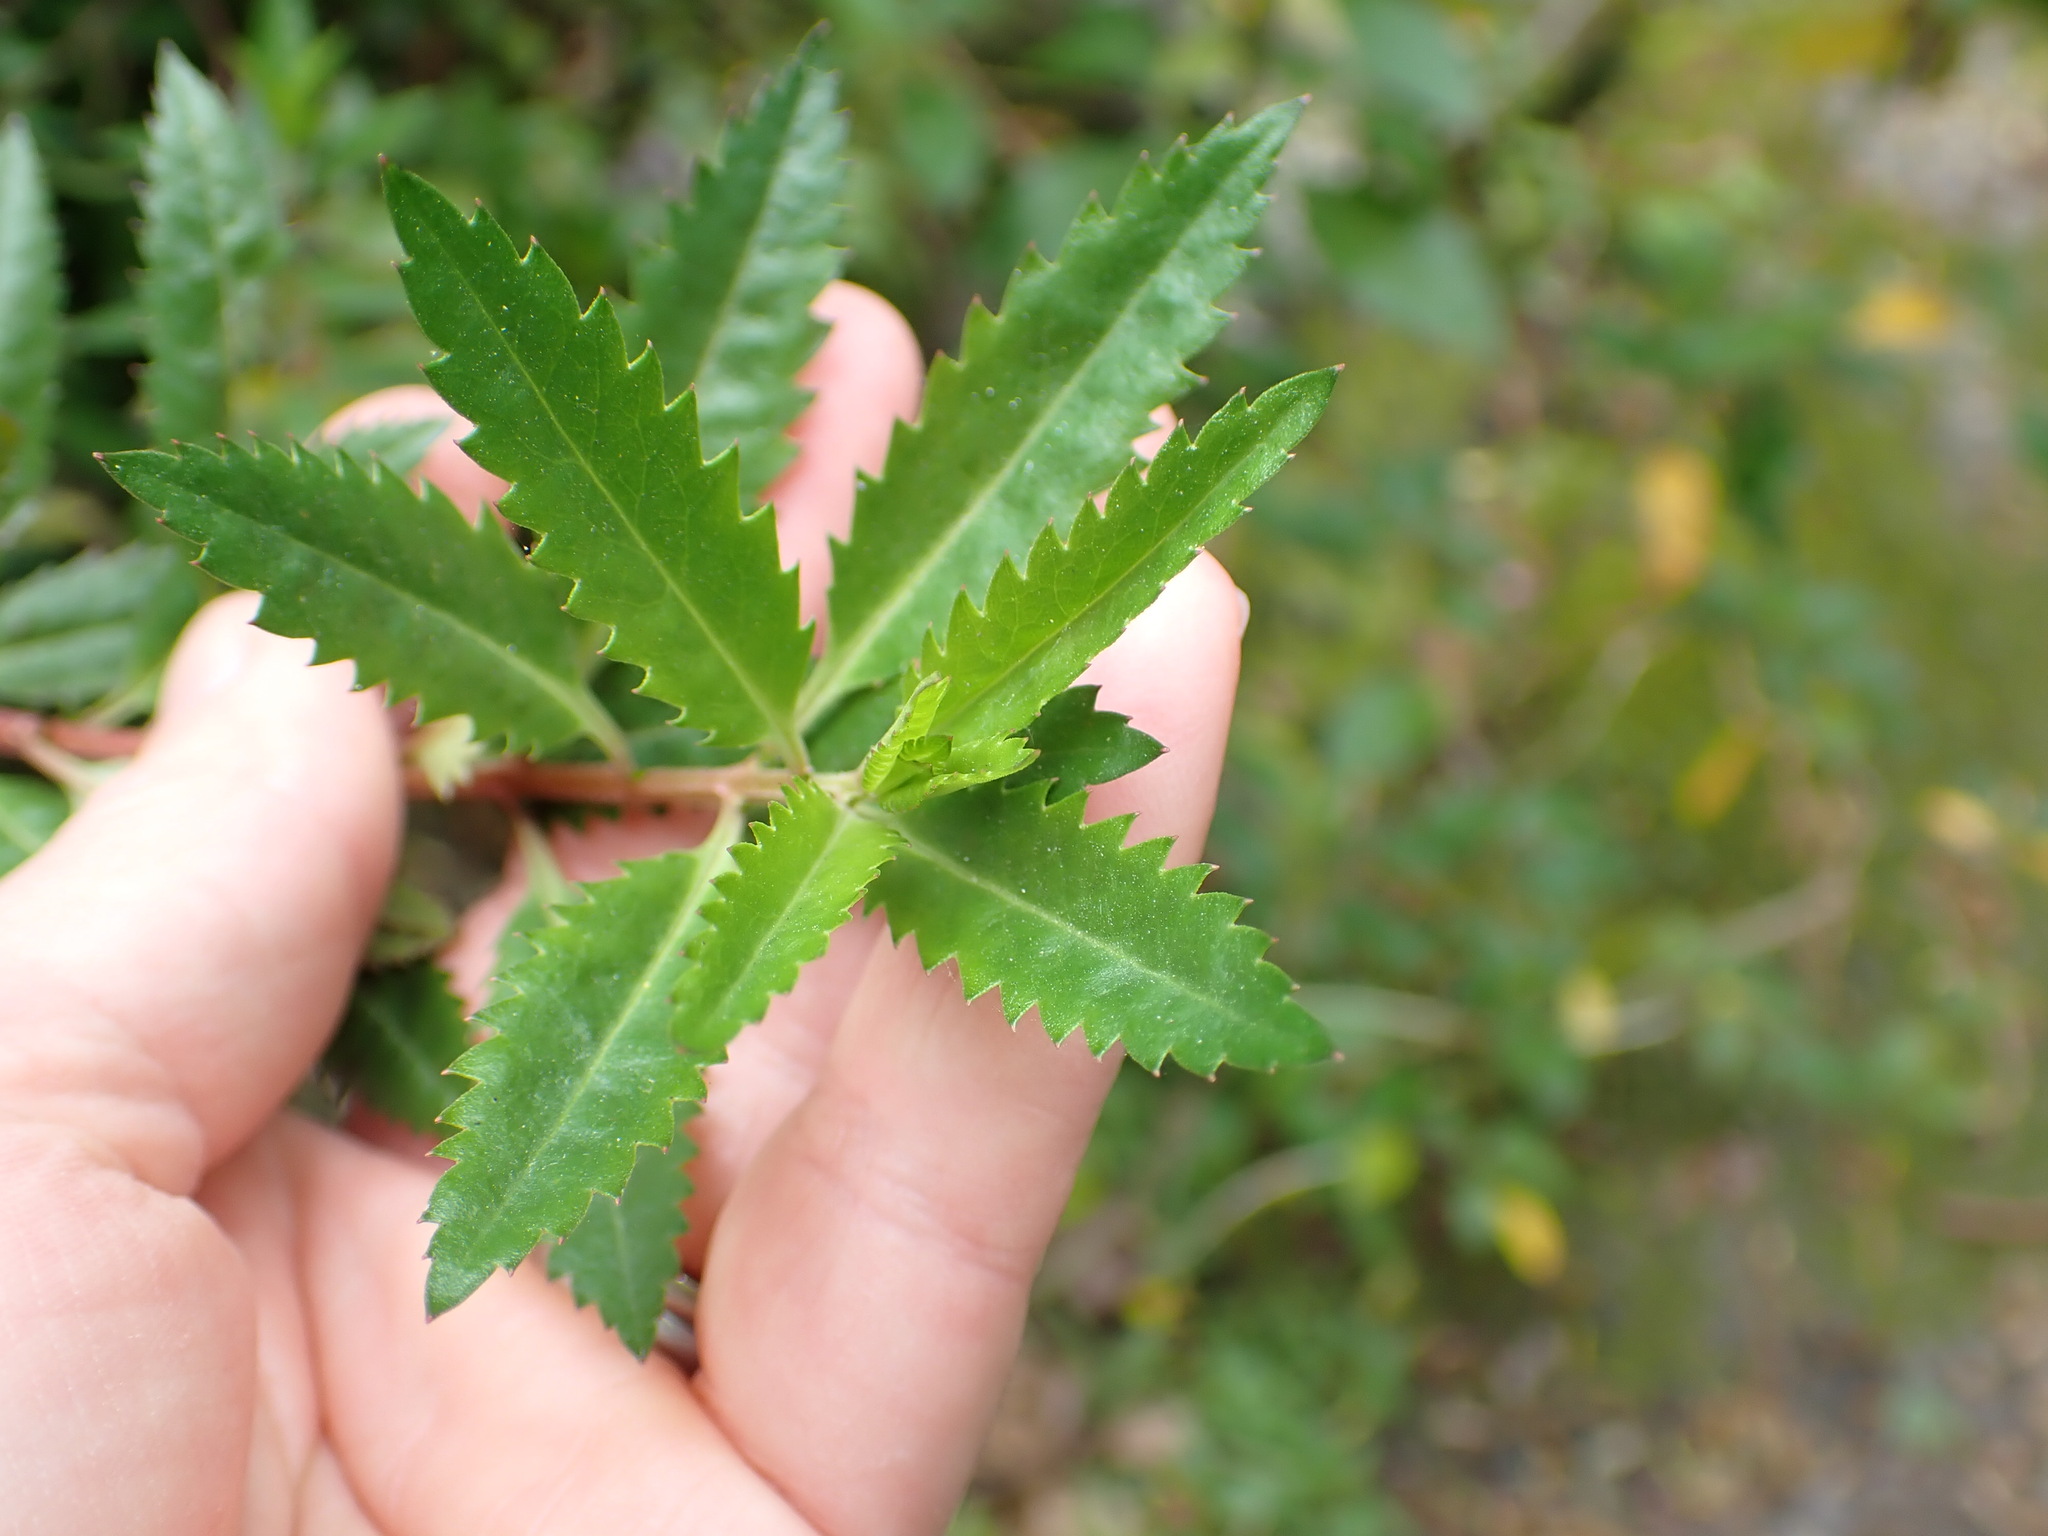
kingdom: Plantae
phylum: Tracheophyta
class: Magnoliopsida
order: Saxifragales
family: Haloragaceae
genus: Haloragis
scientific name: Haloragis erecta
